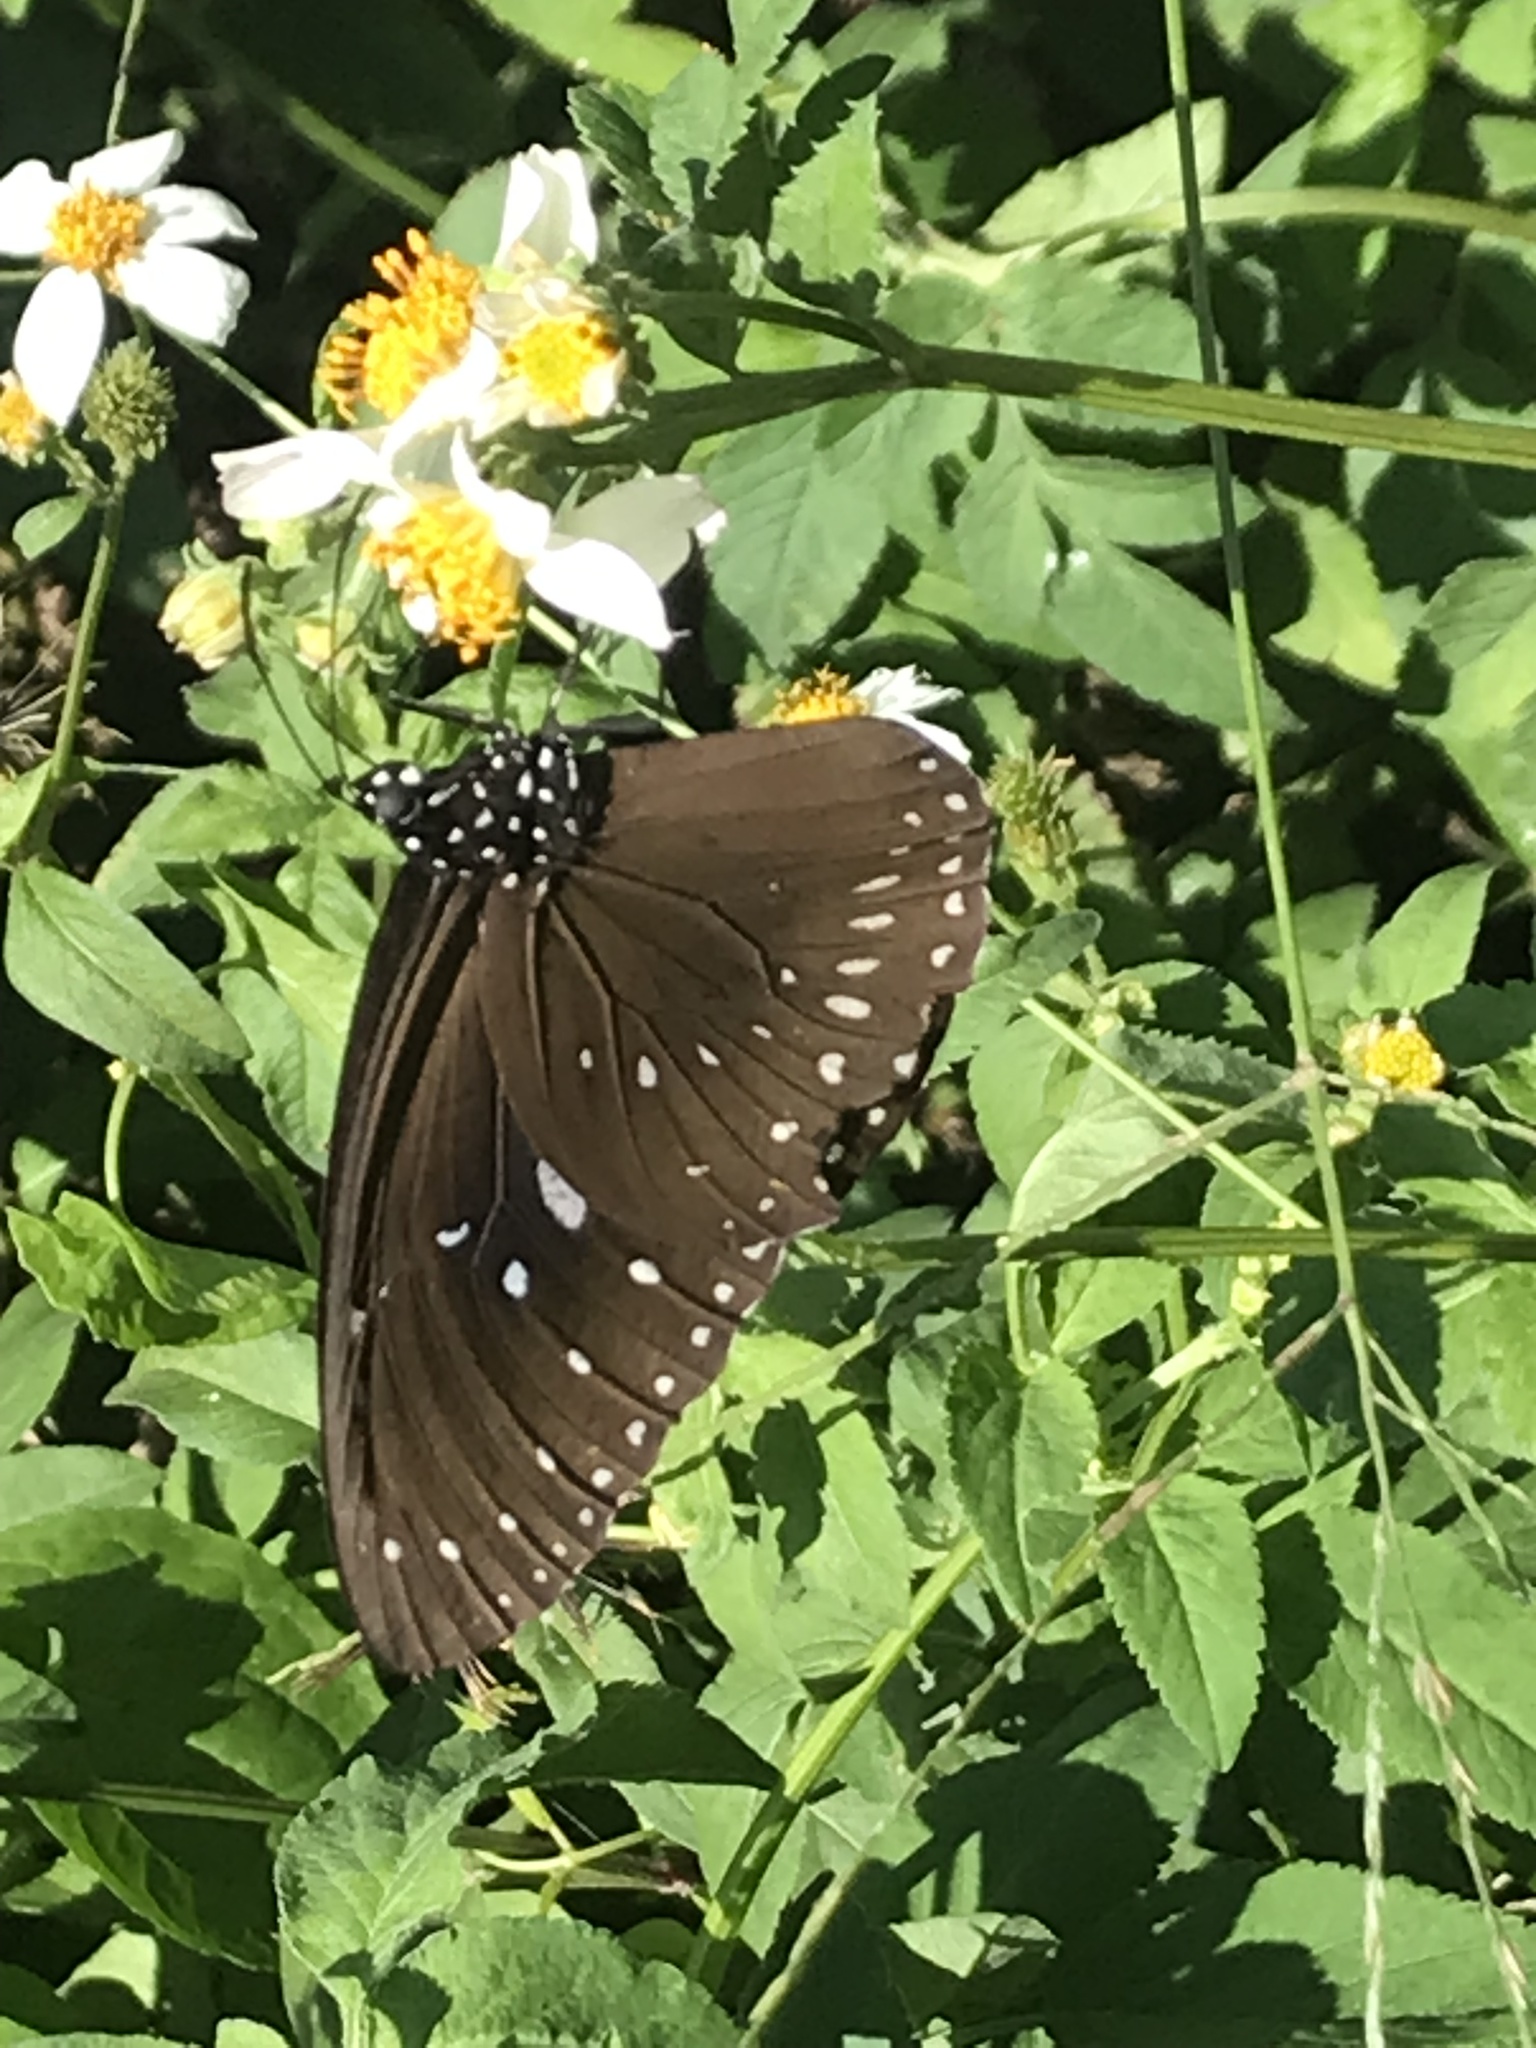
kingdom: Animalia
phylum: Arthropoda
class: Insecta
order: Lepidoptera
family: Nymphalidae
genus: Euploea
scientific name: Euploea midamus
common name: Blue-spotted crow butterfly
